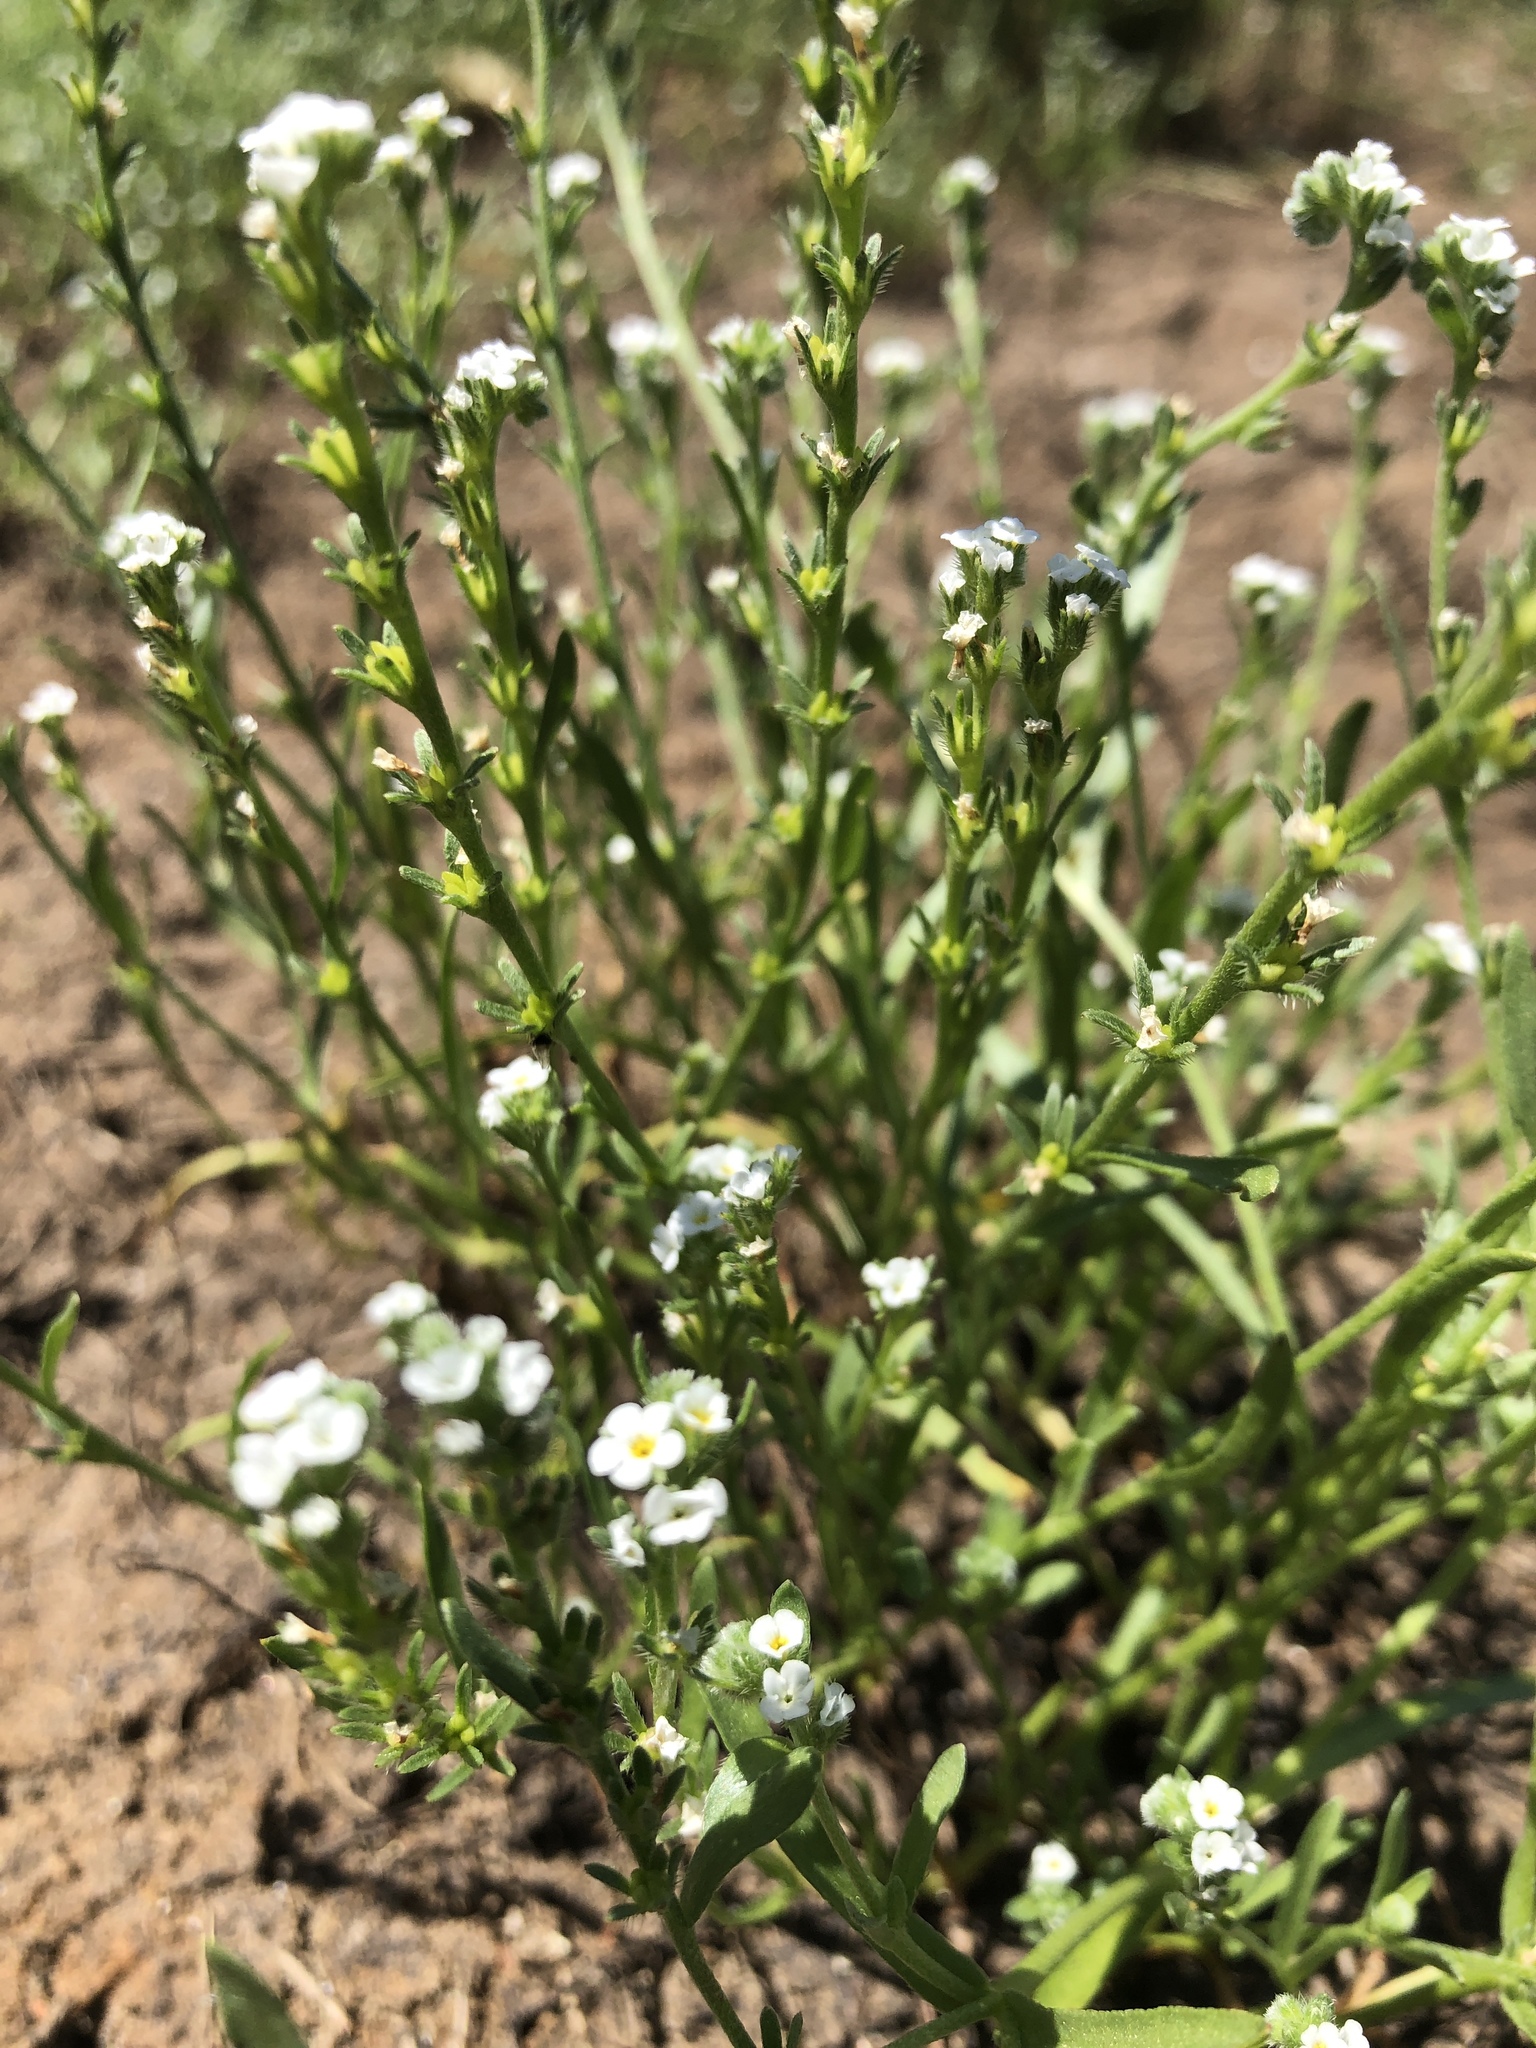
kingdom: Plantae
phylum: Tracheophyta
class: Magnoliopsida
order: Boraginales
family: Boraginaceae
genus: Plagiobothrys
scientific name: Plagiobothrys stipitatus
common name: Stipitate forget-me-not
